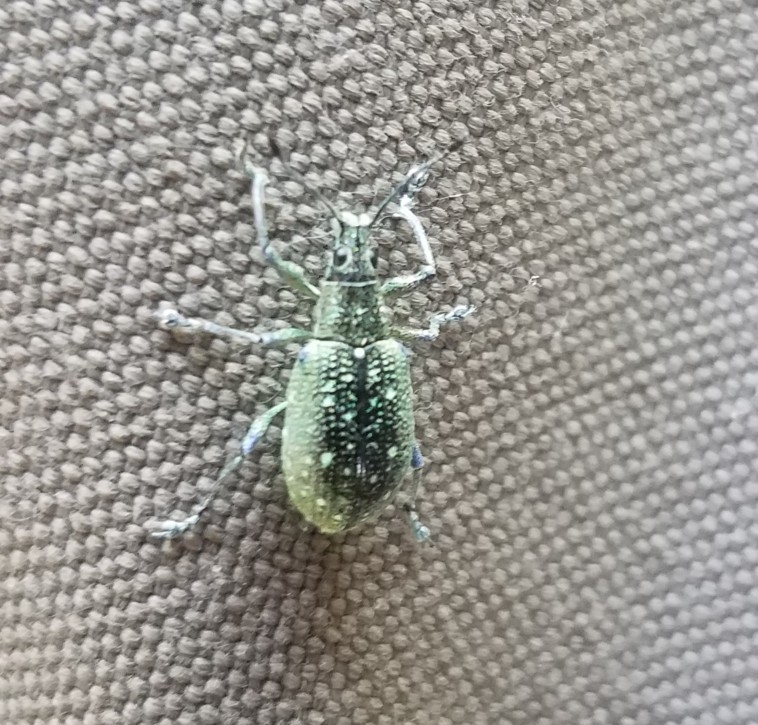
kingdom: Animalia
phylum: Arthropoda
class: Insecta
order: Coleoptera
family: Curculionidae
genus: Exophthalmus
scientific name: Exophthalmus jekelianus
